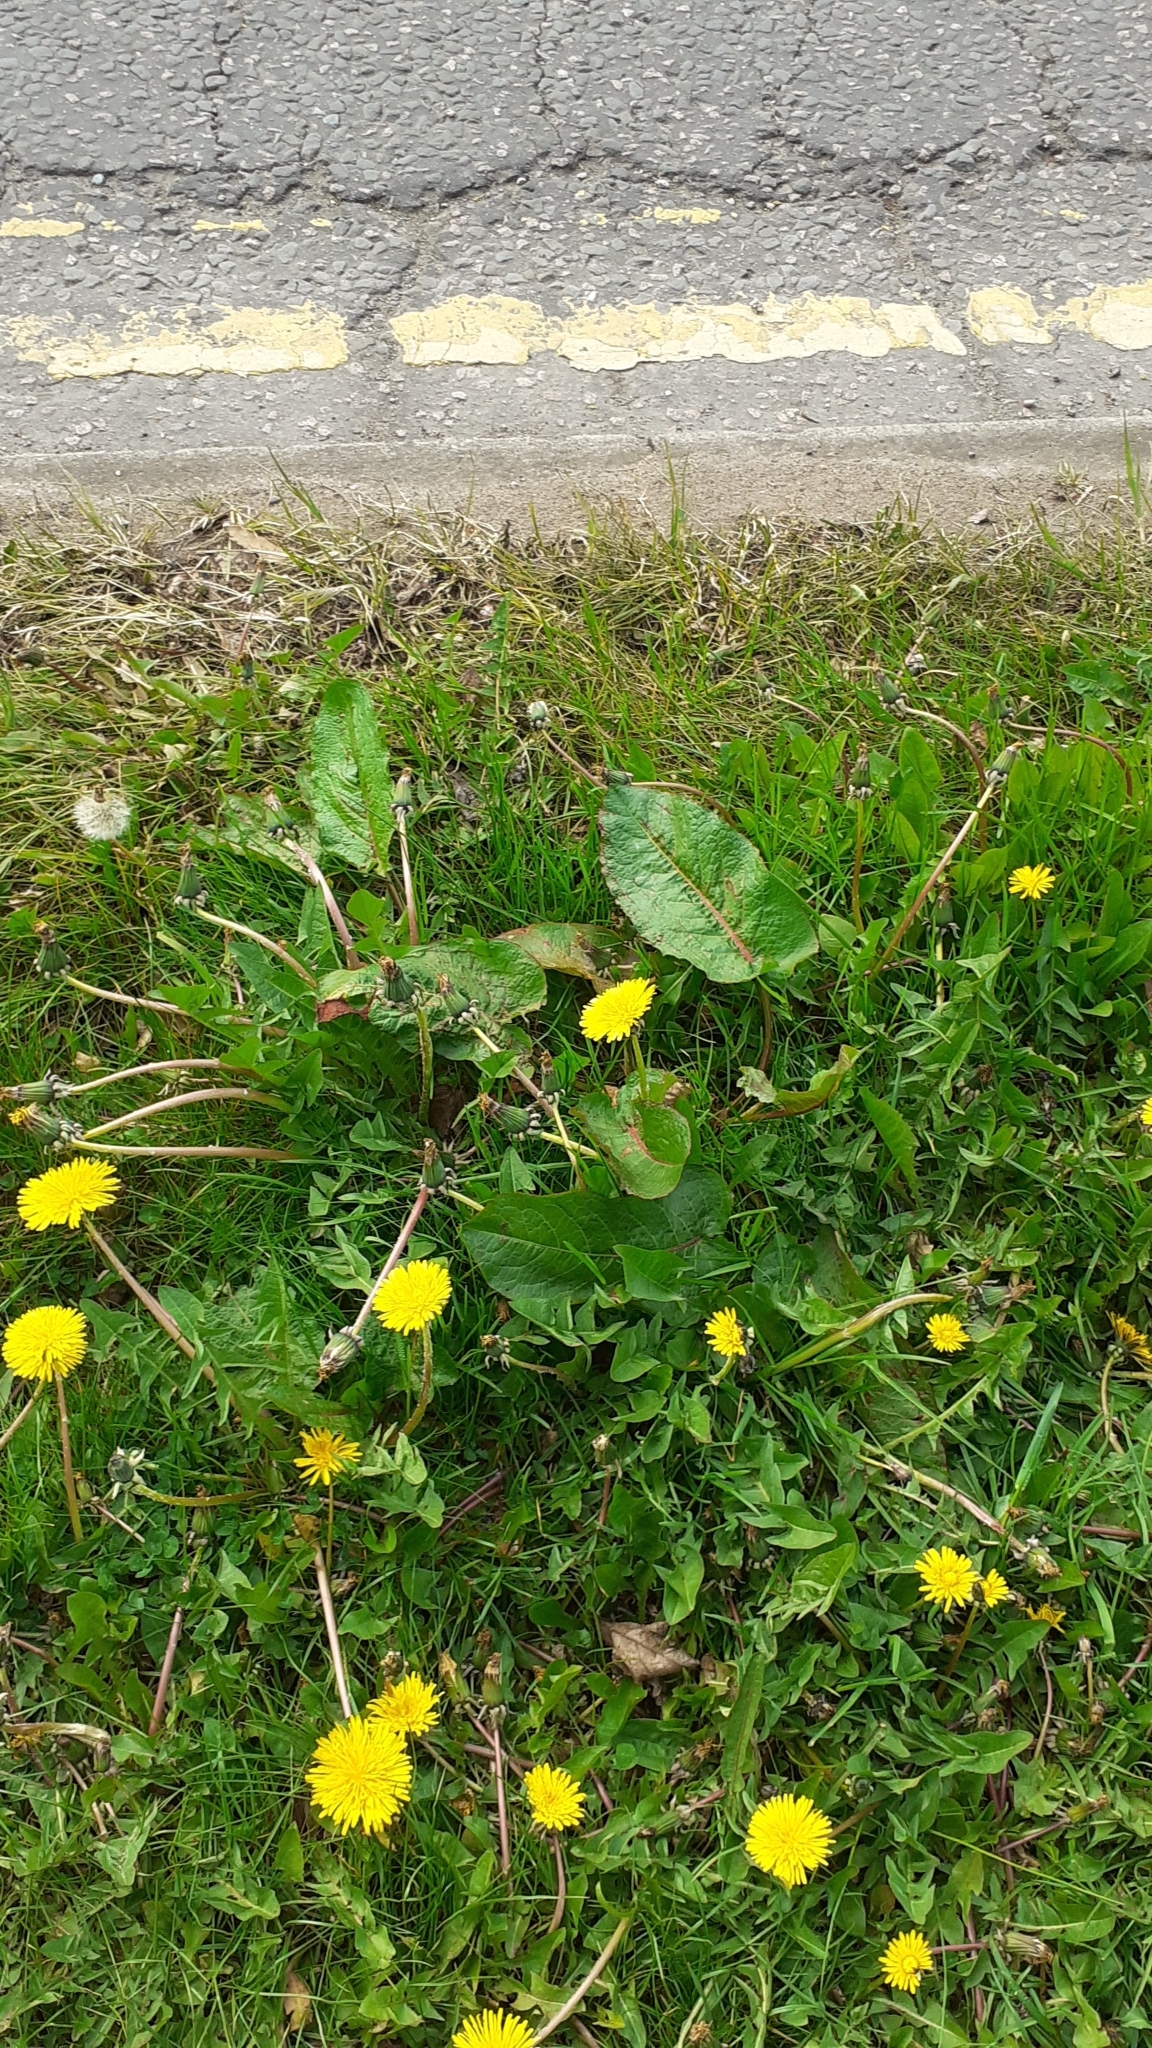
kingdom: Plantae
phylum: Tracheophyta
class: Magnoliopsida
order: Caryophyllales
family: Polygonaceae
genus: Rumex
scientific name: Rumex obtusifolius
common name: Bitter dock
